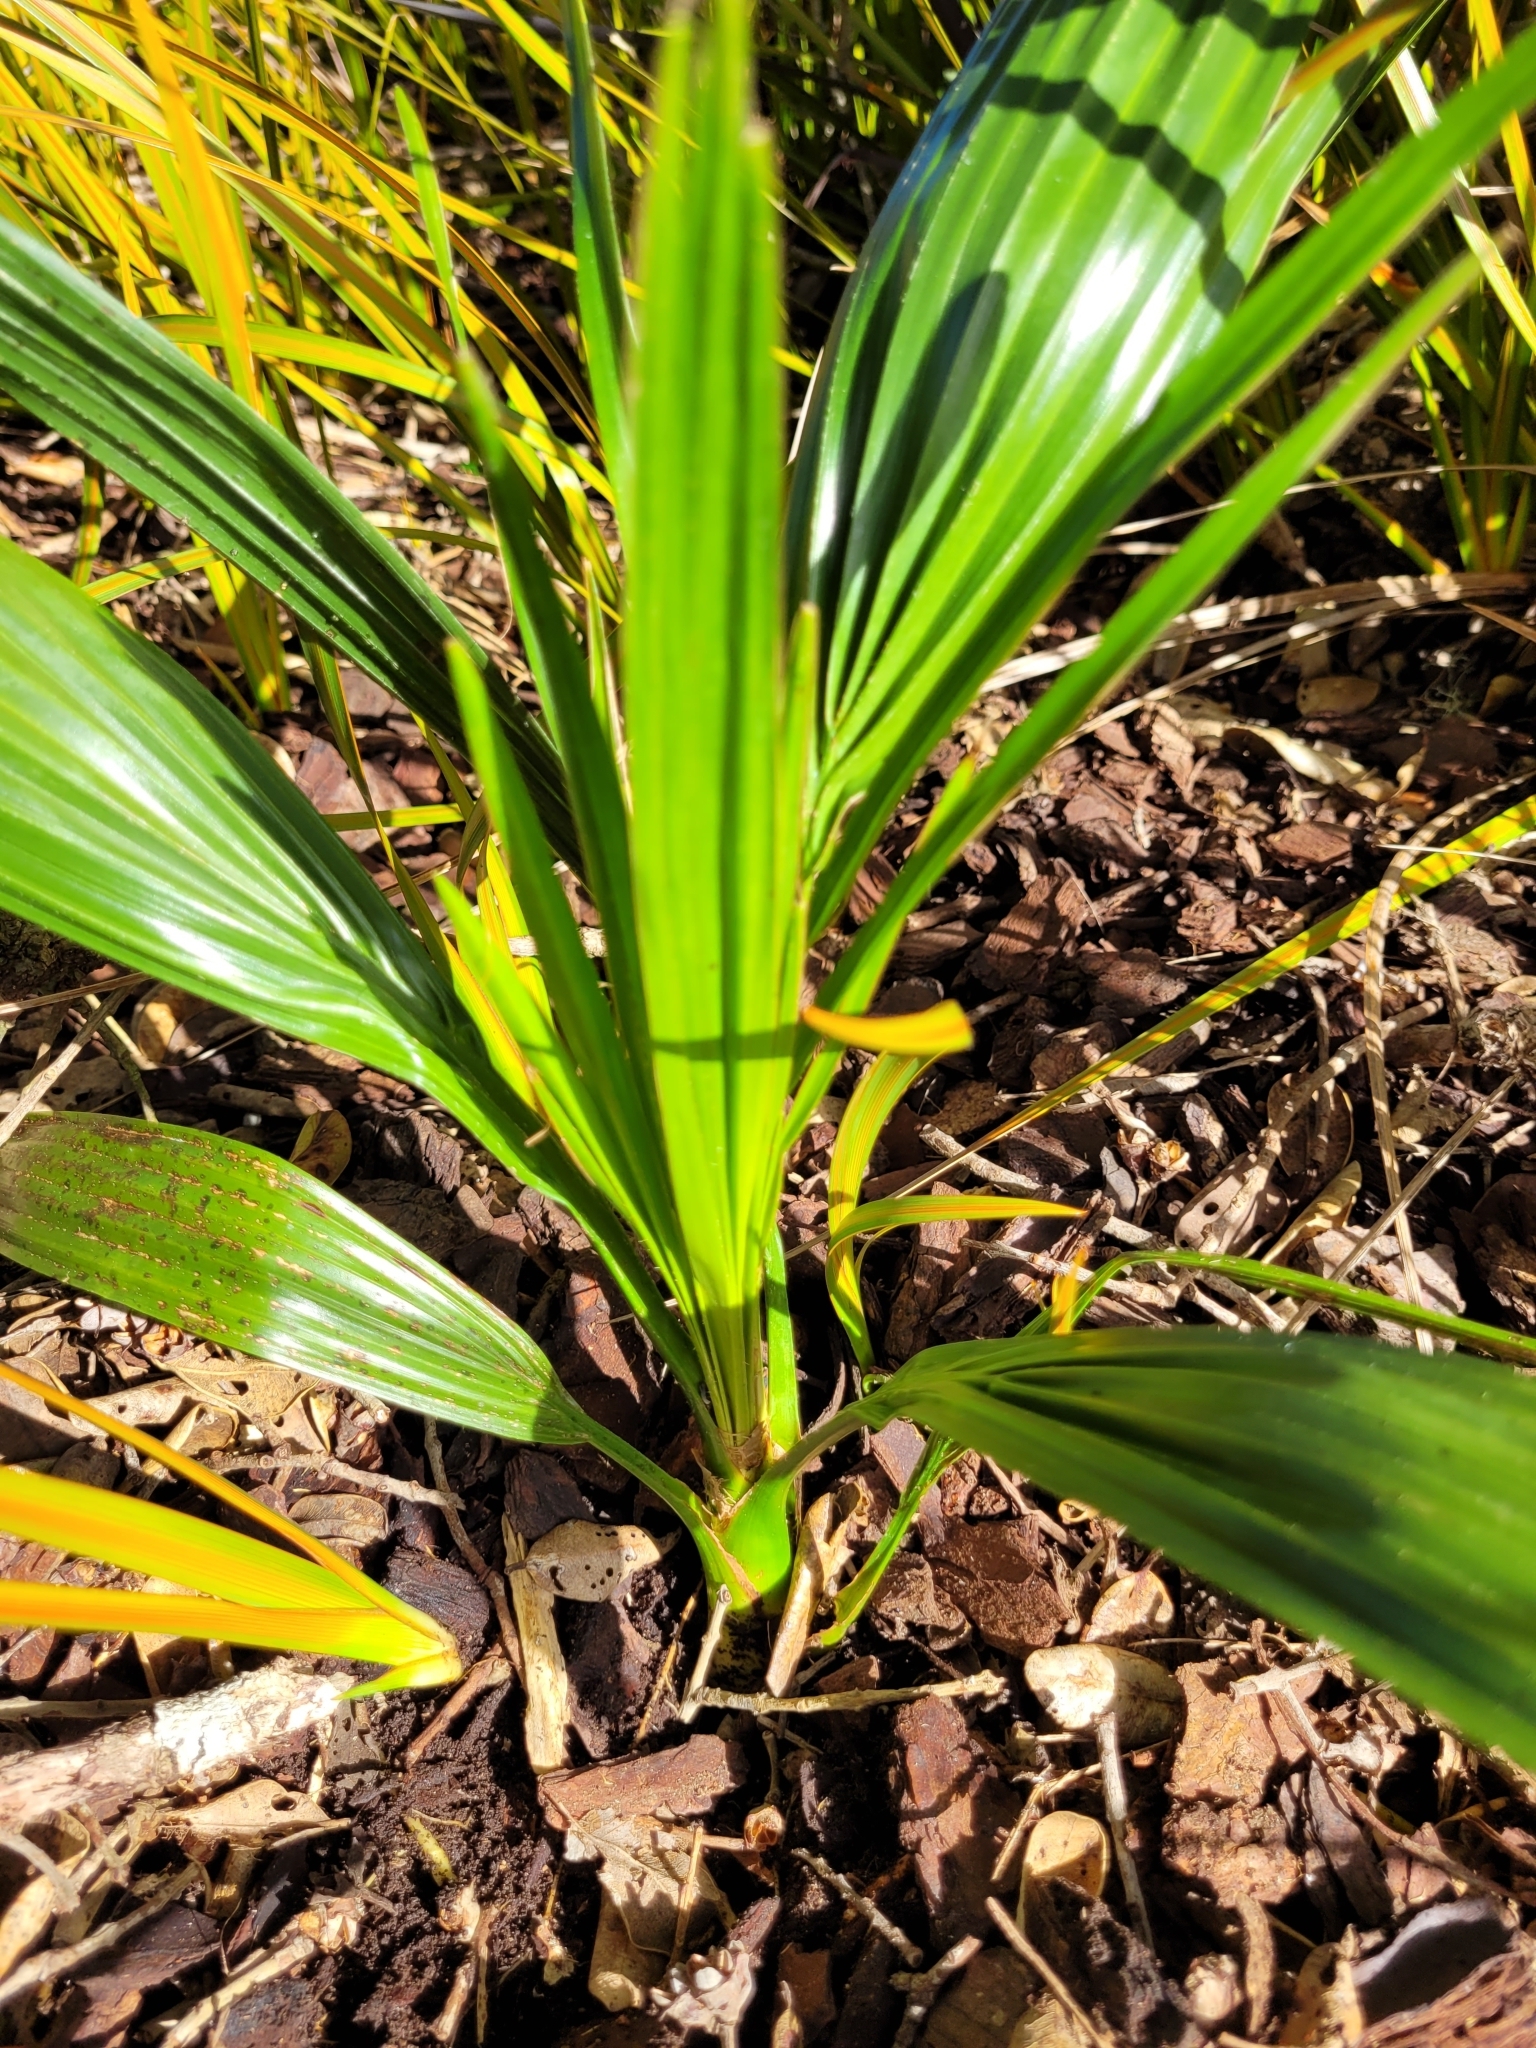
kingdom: Plantae
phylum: Tracheophyta
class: Liliopsida
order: Arecales
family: Arecaceae
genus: Phoenix
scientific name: Phoenix canariensis
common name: Canary island date palm
